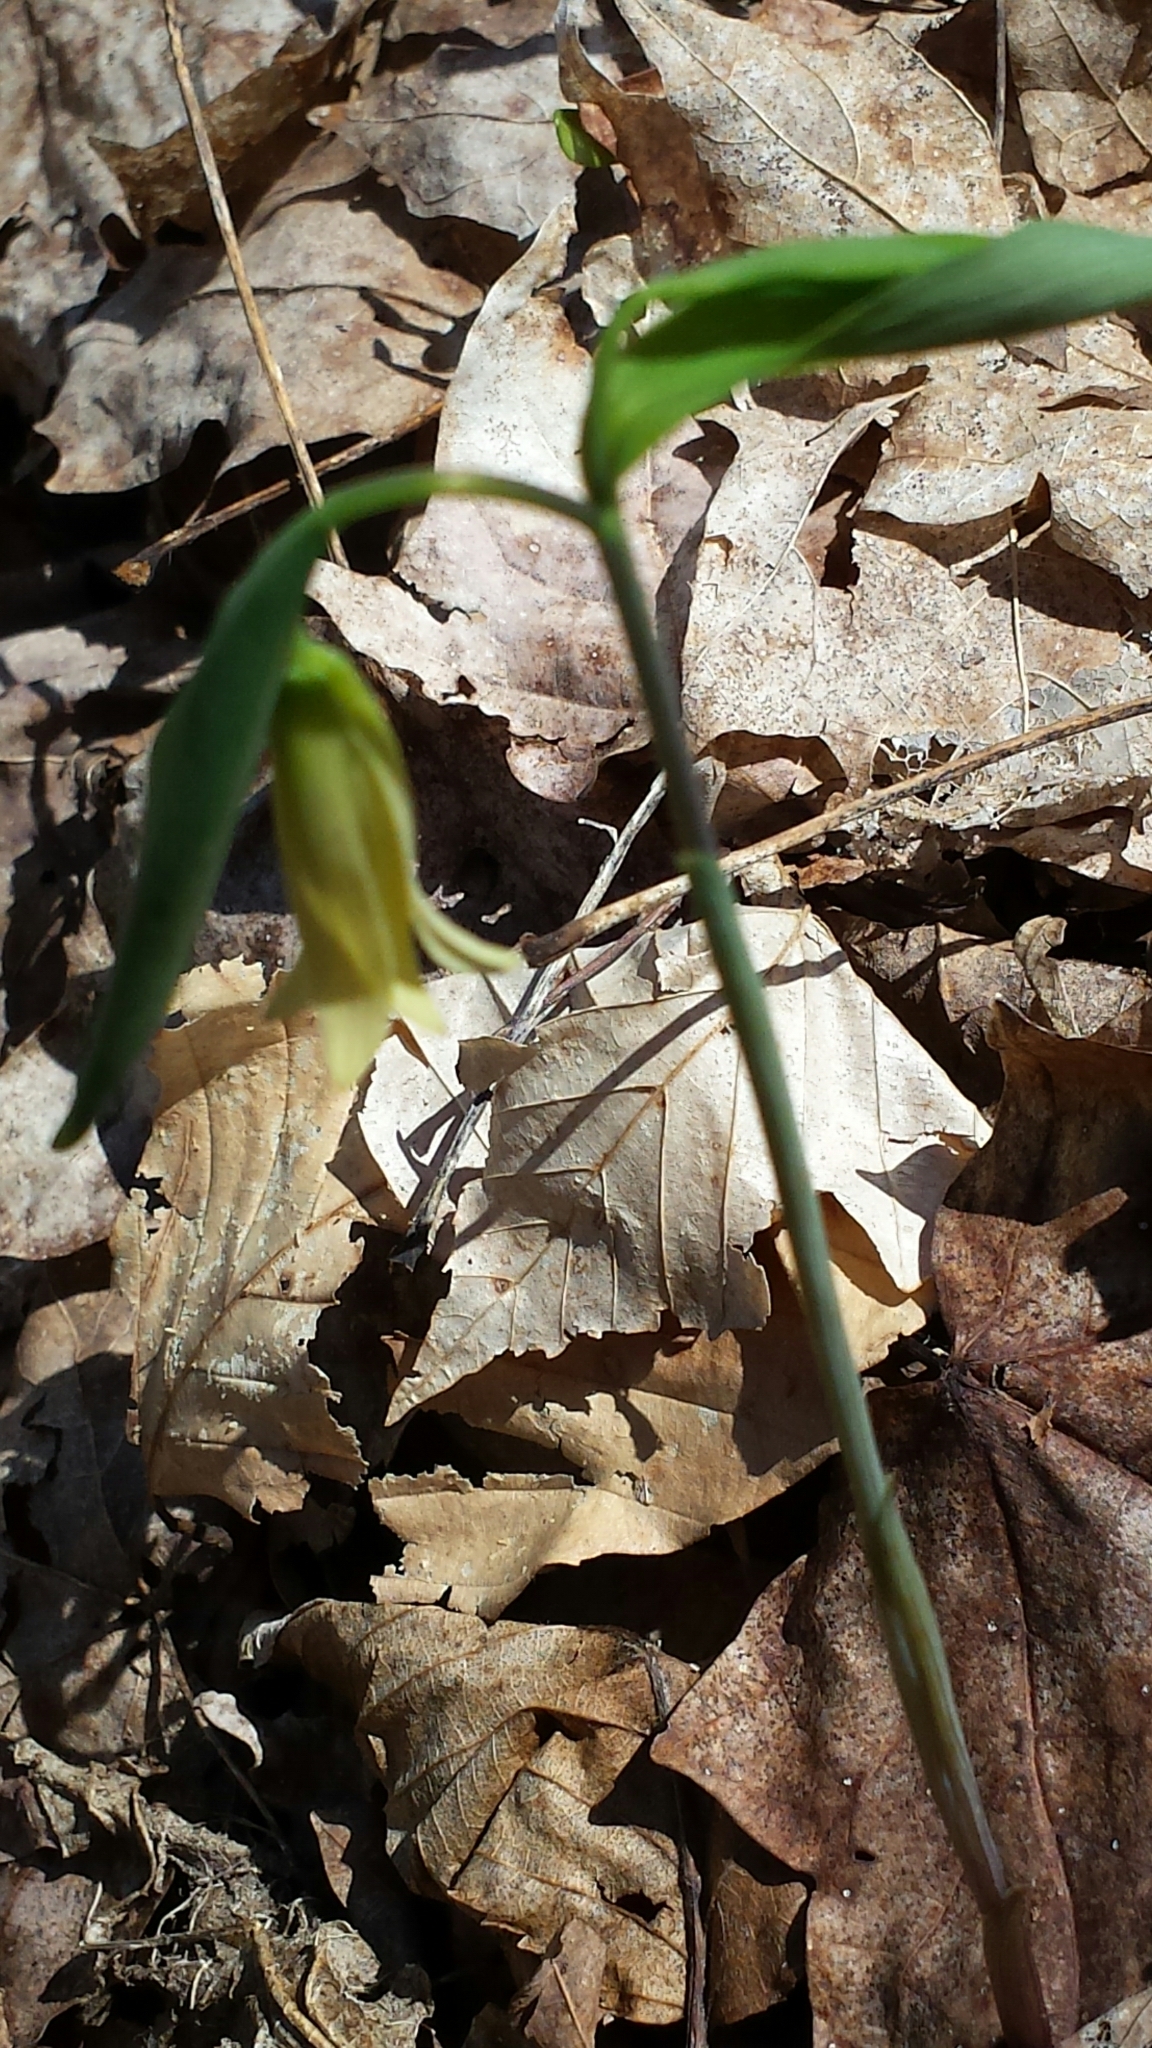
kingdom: Plantae
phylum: Tracheophyta
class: Liliopsida
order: Liliales
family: Colchicaceae
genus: Uvularia
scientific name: Uvularia sessilifolia
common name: Straw-lily
